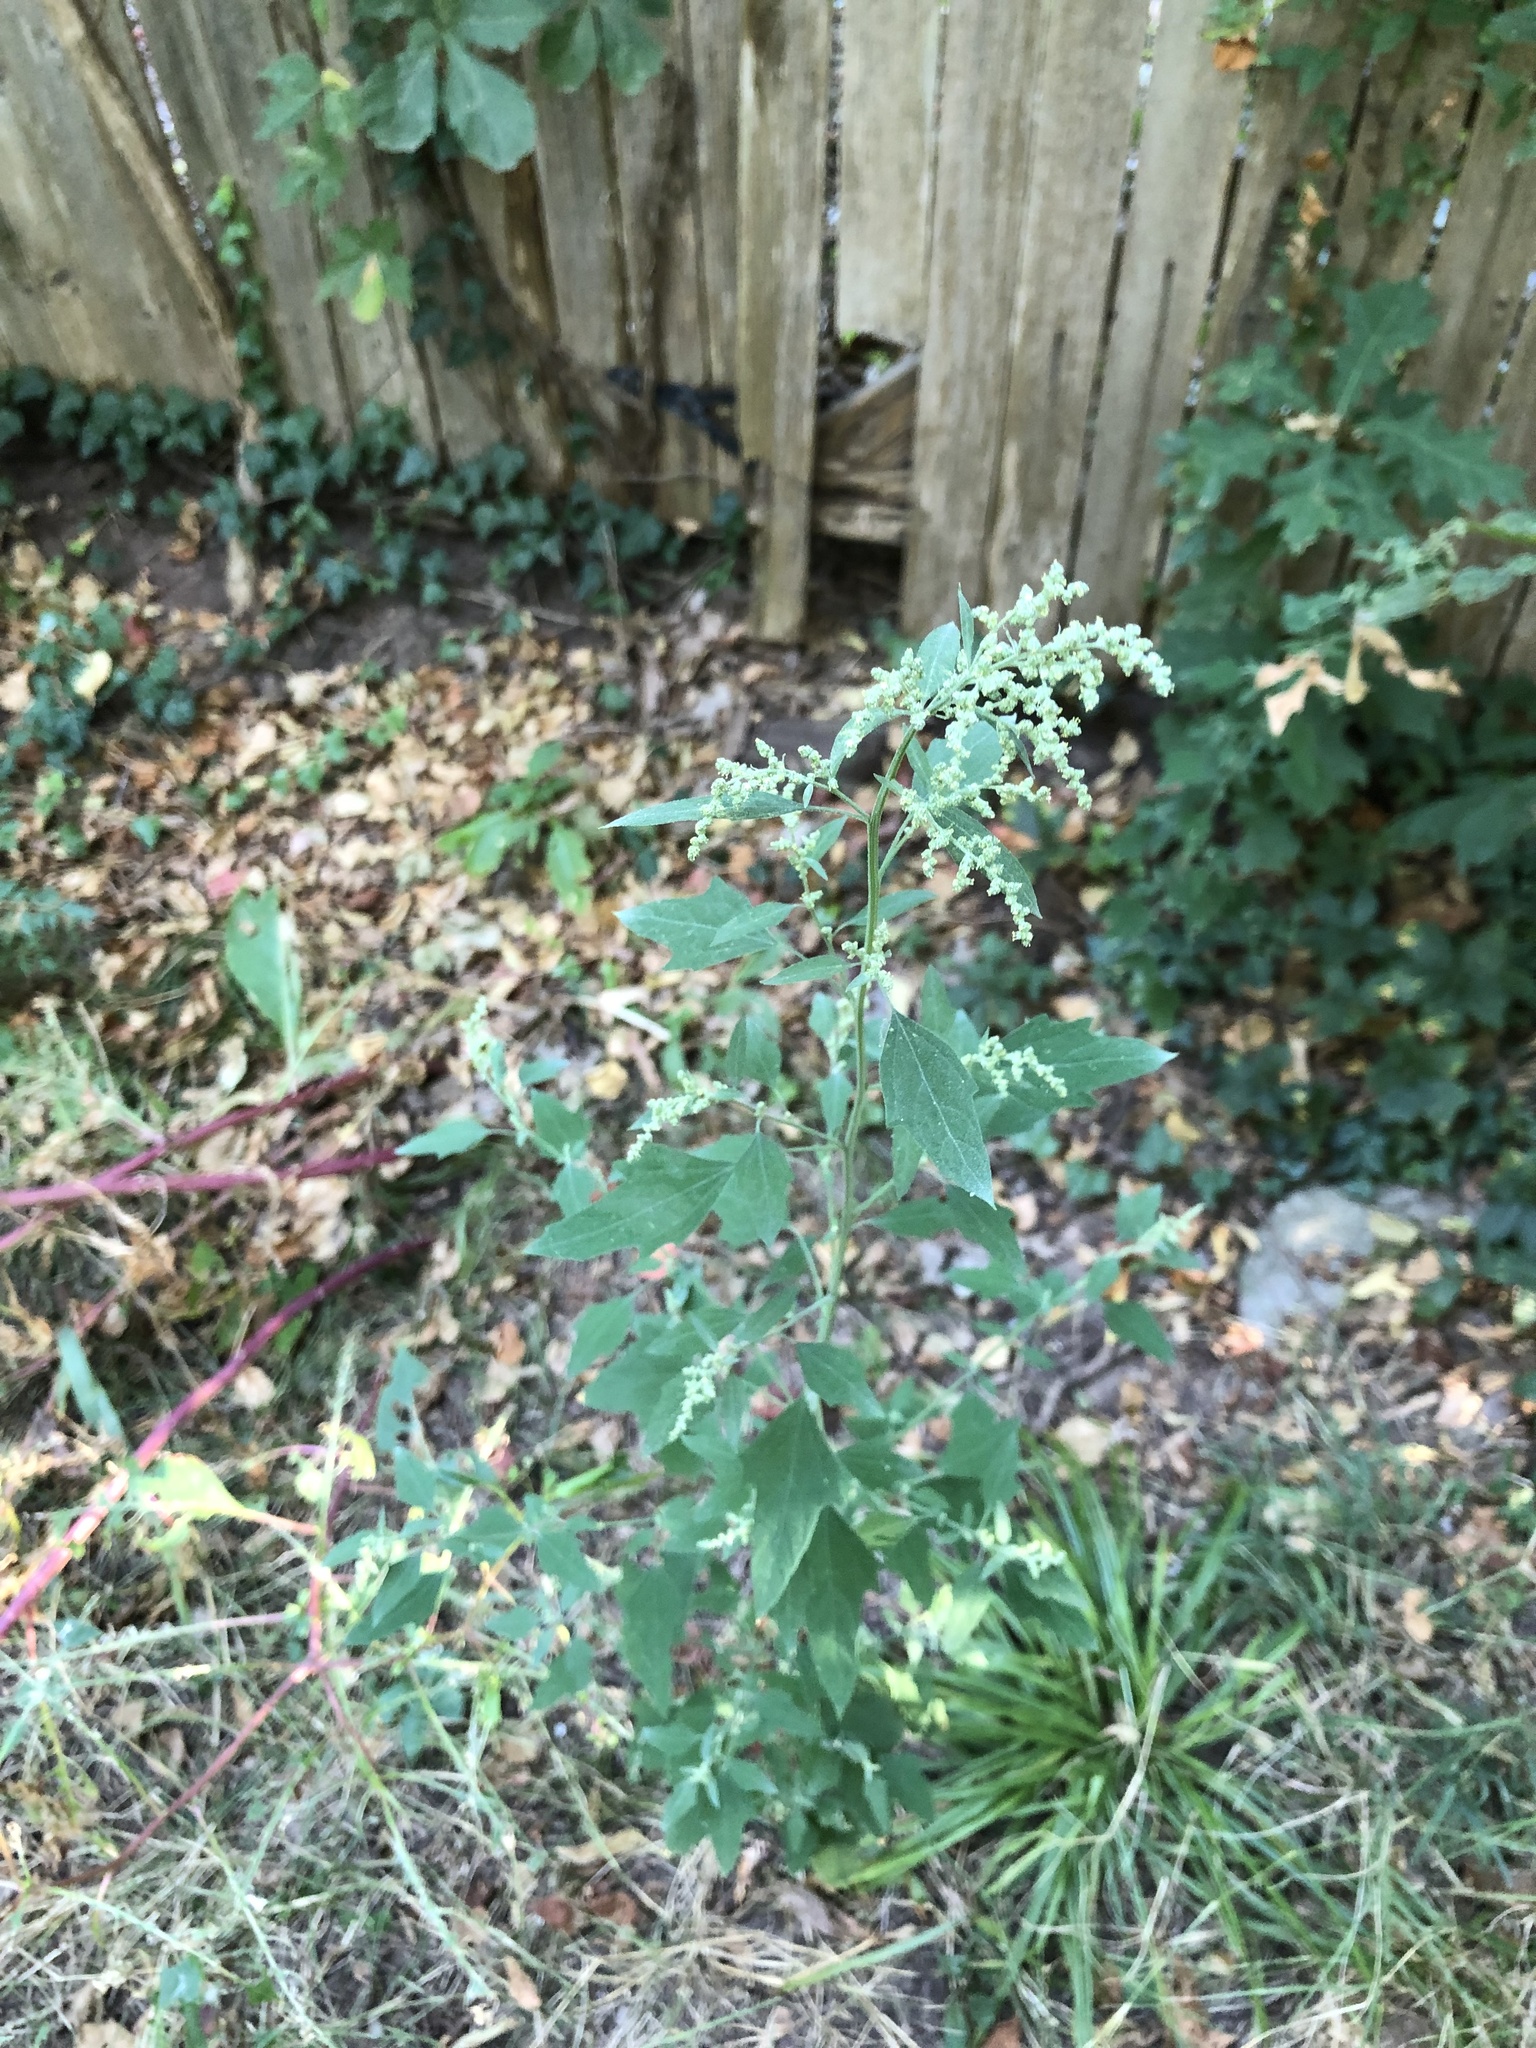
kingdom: Plantae
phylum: Tracheophyta
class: Magnoliopsida
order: Caryophyllales
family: Amaranthaceae
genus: Chenopodium
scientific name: Chenopodium album
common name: Fat-hen
